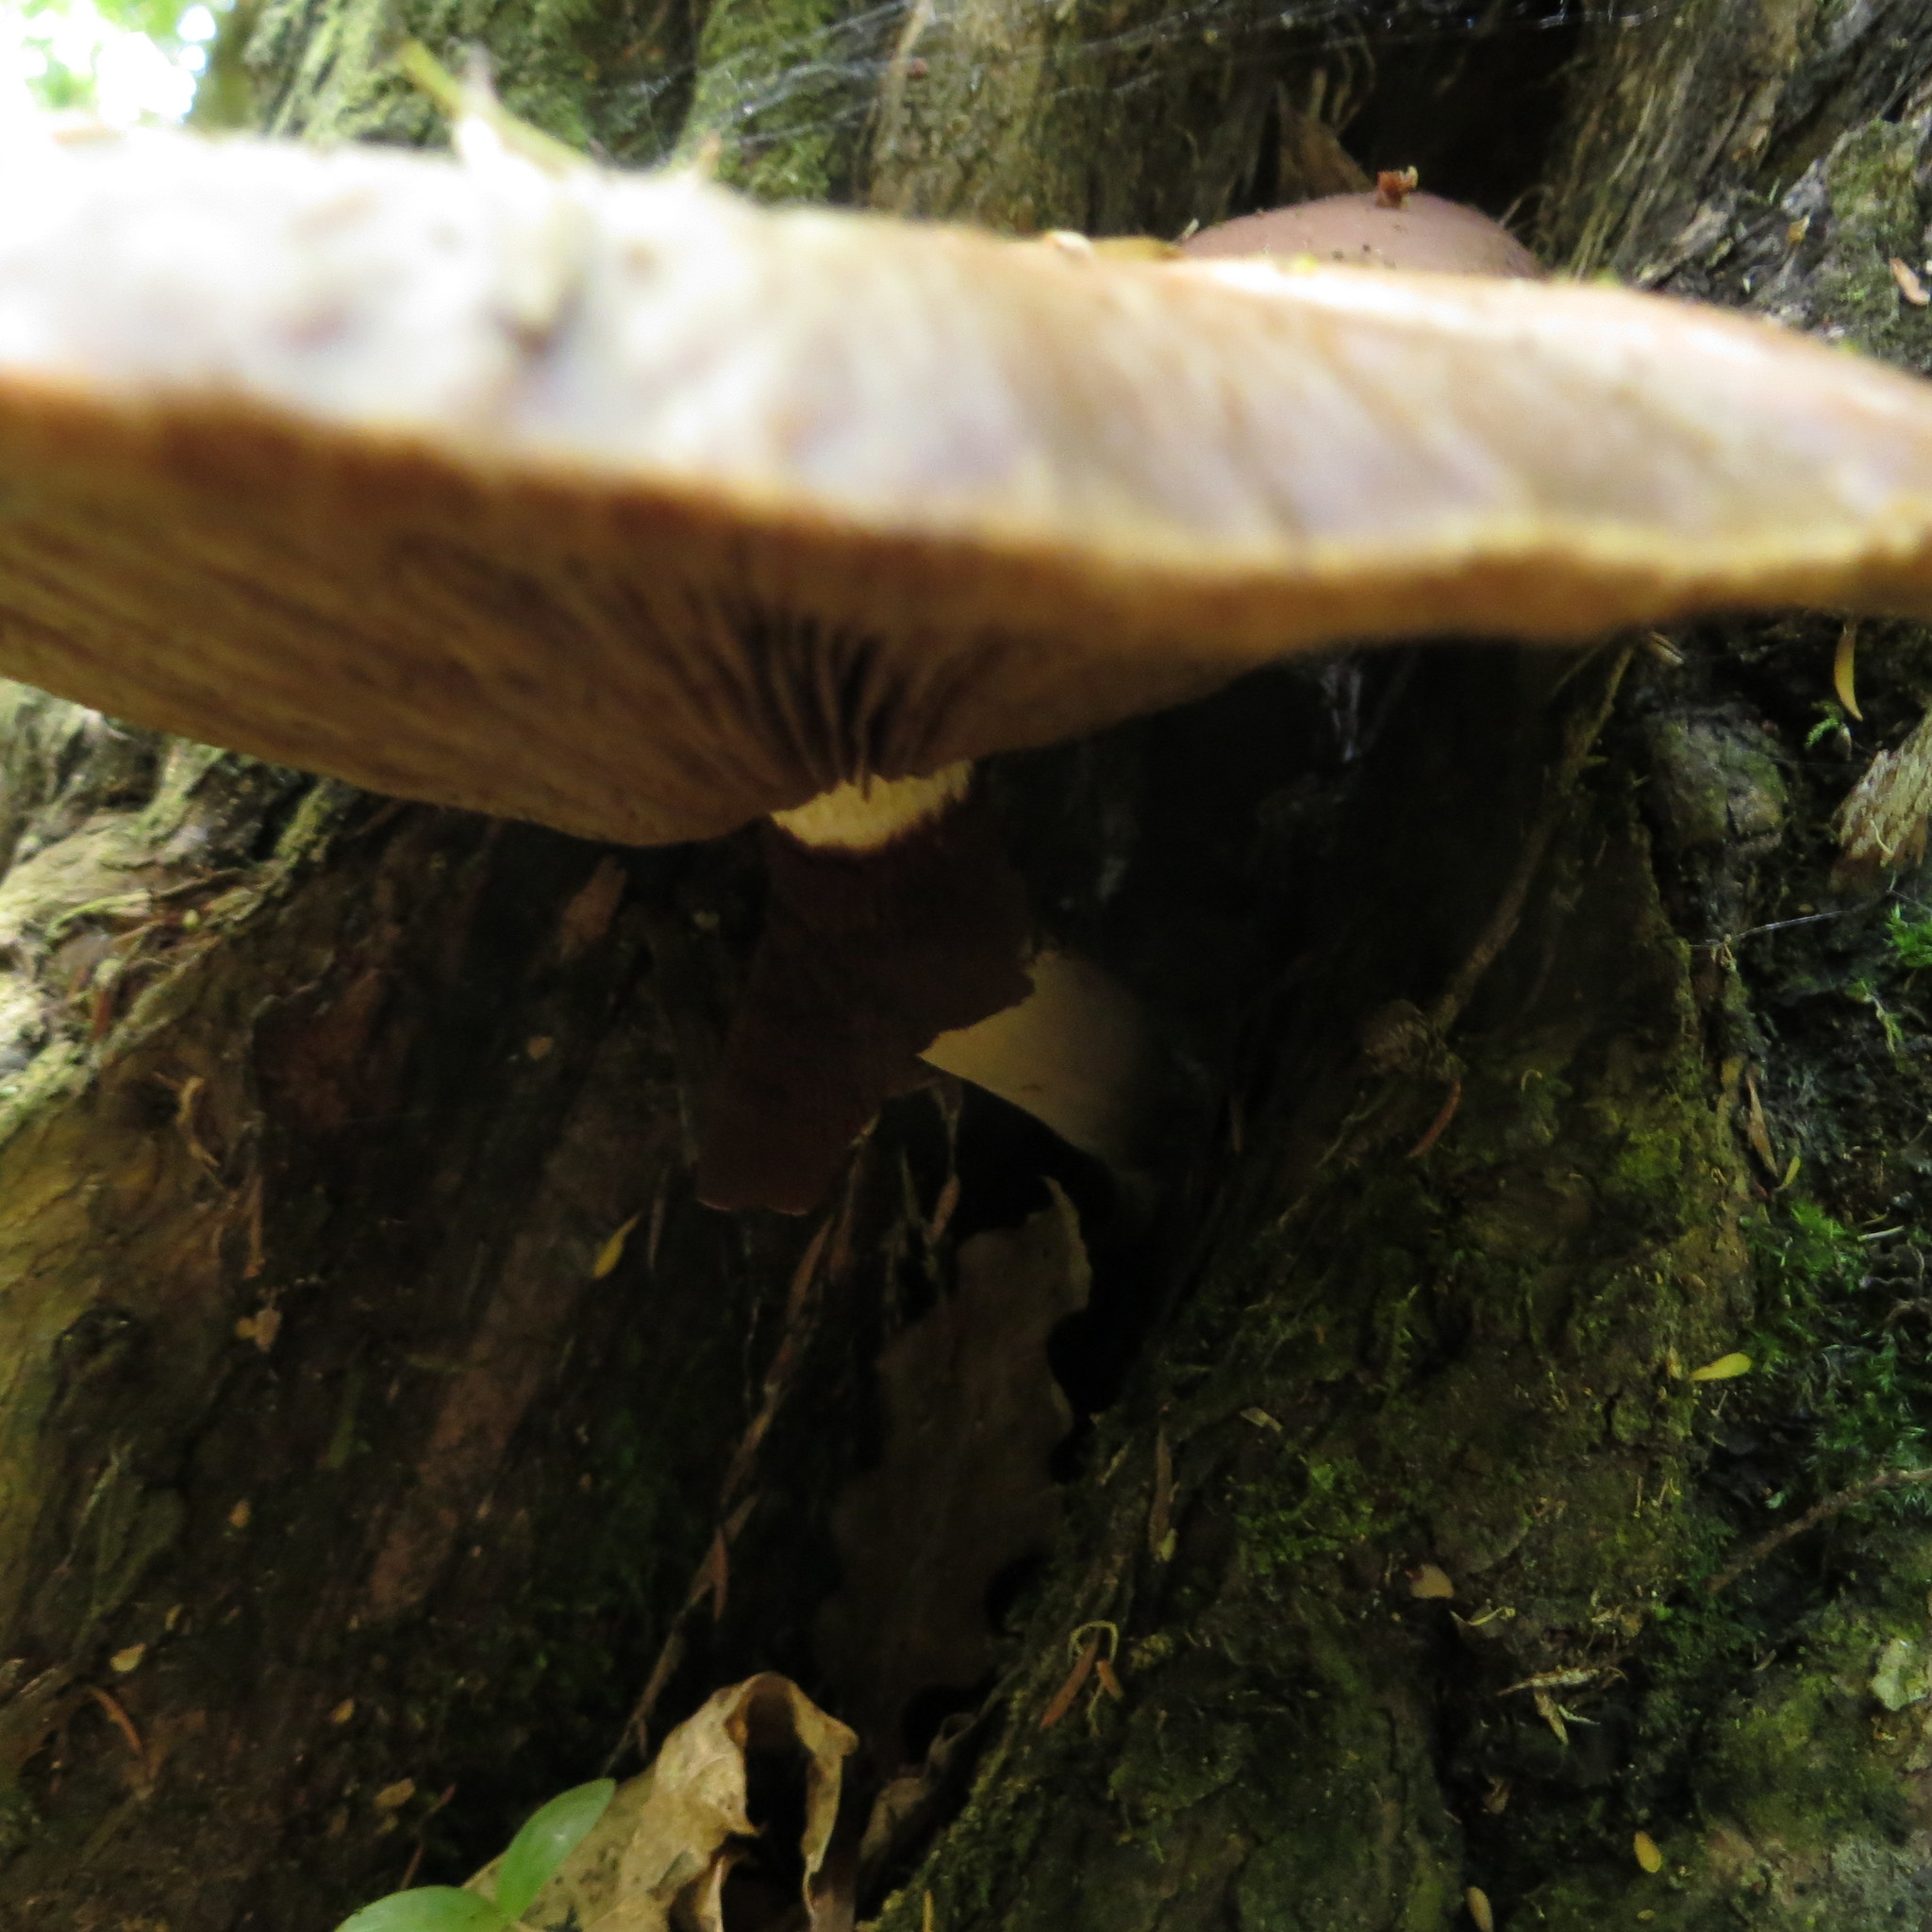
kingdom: Fungi
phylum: Basidiomycota
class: Agaricomycetes
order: Agaricales
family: Tubariaceae
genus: Cyclocybe
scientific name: Cyclocybe parasitica
